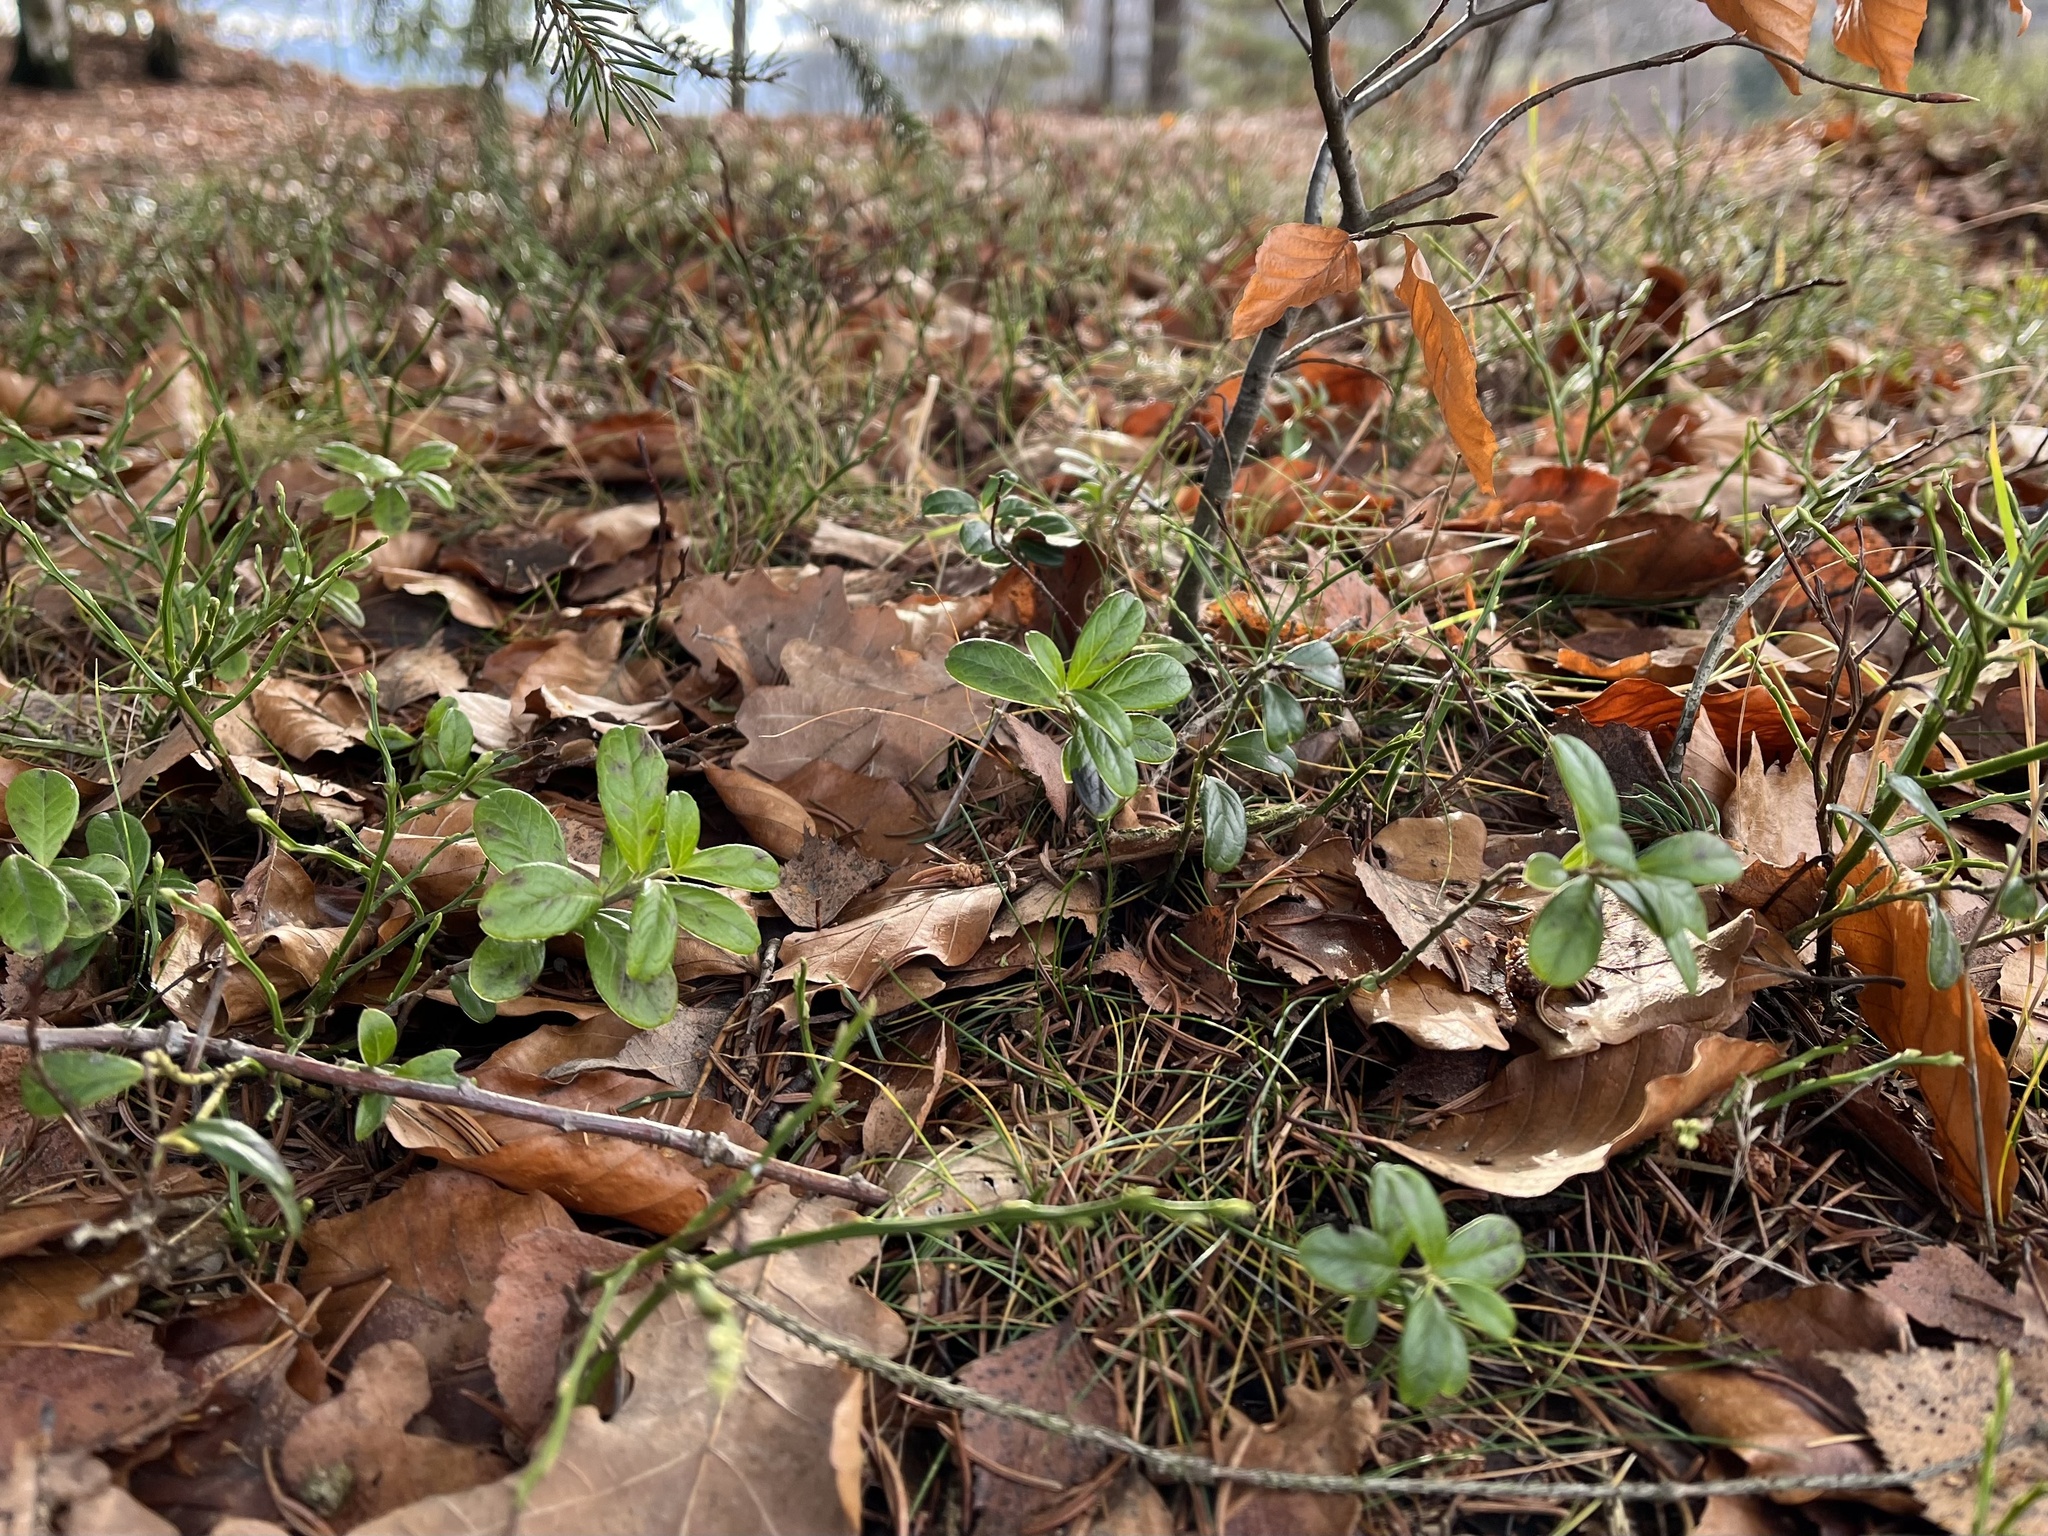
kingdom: Plantae
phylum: Tracheophyta
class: Magnoliopsida
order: Ericales
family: Ericaceae
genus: Vaccinium
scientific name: Vaccinium vitis-idaea
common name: Cowberry
